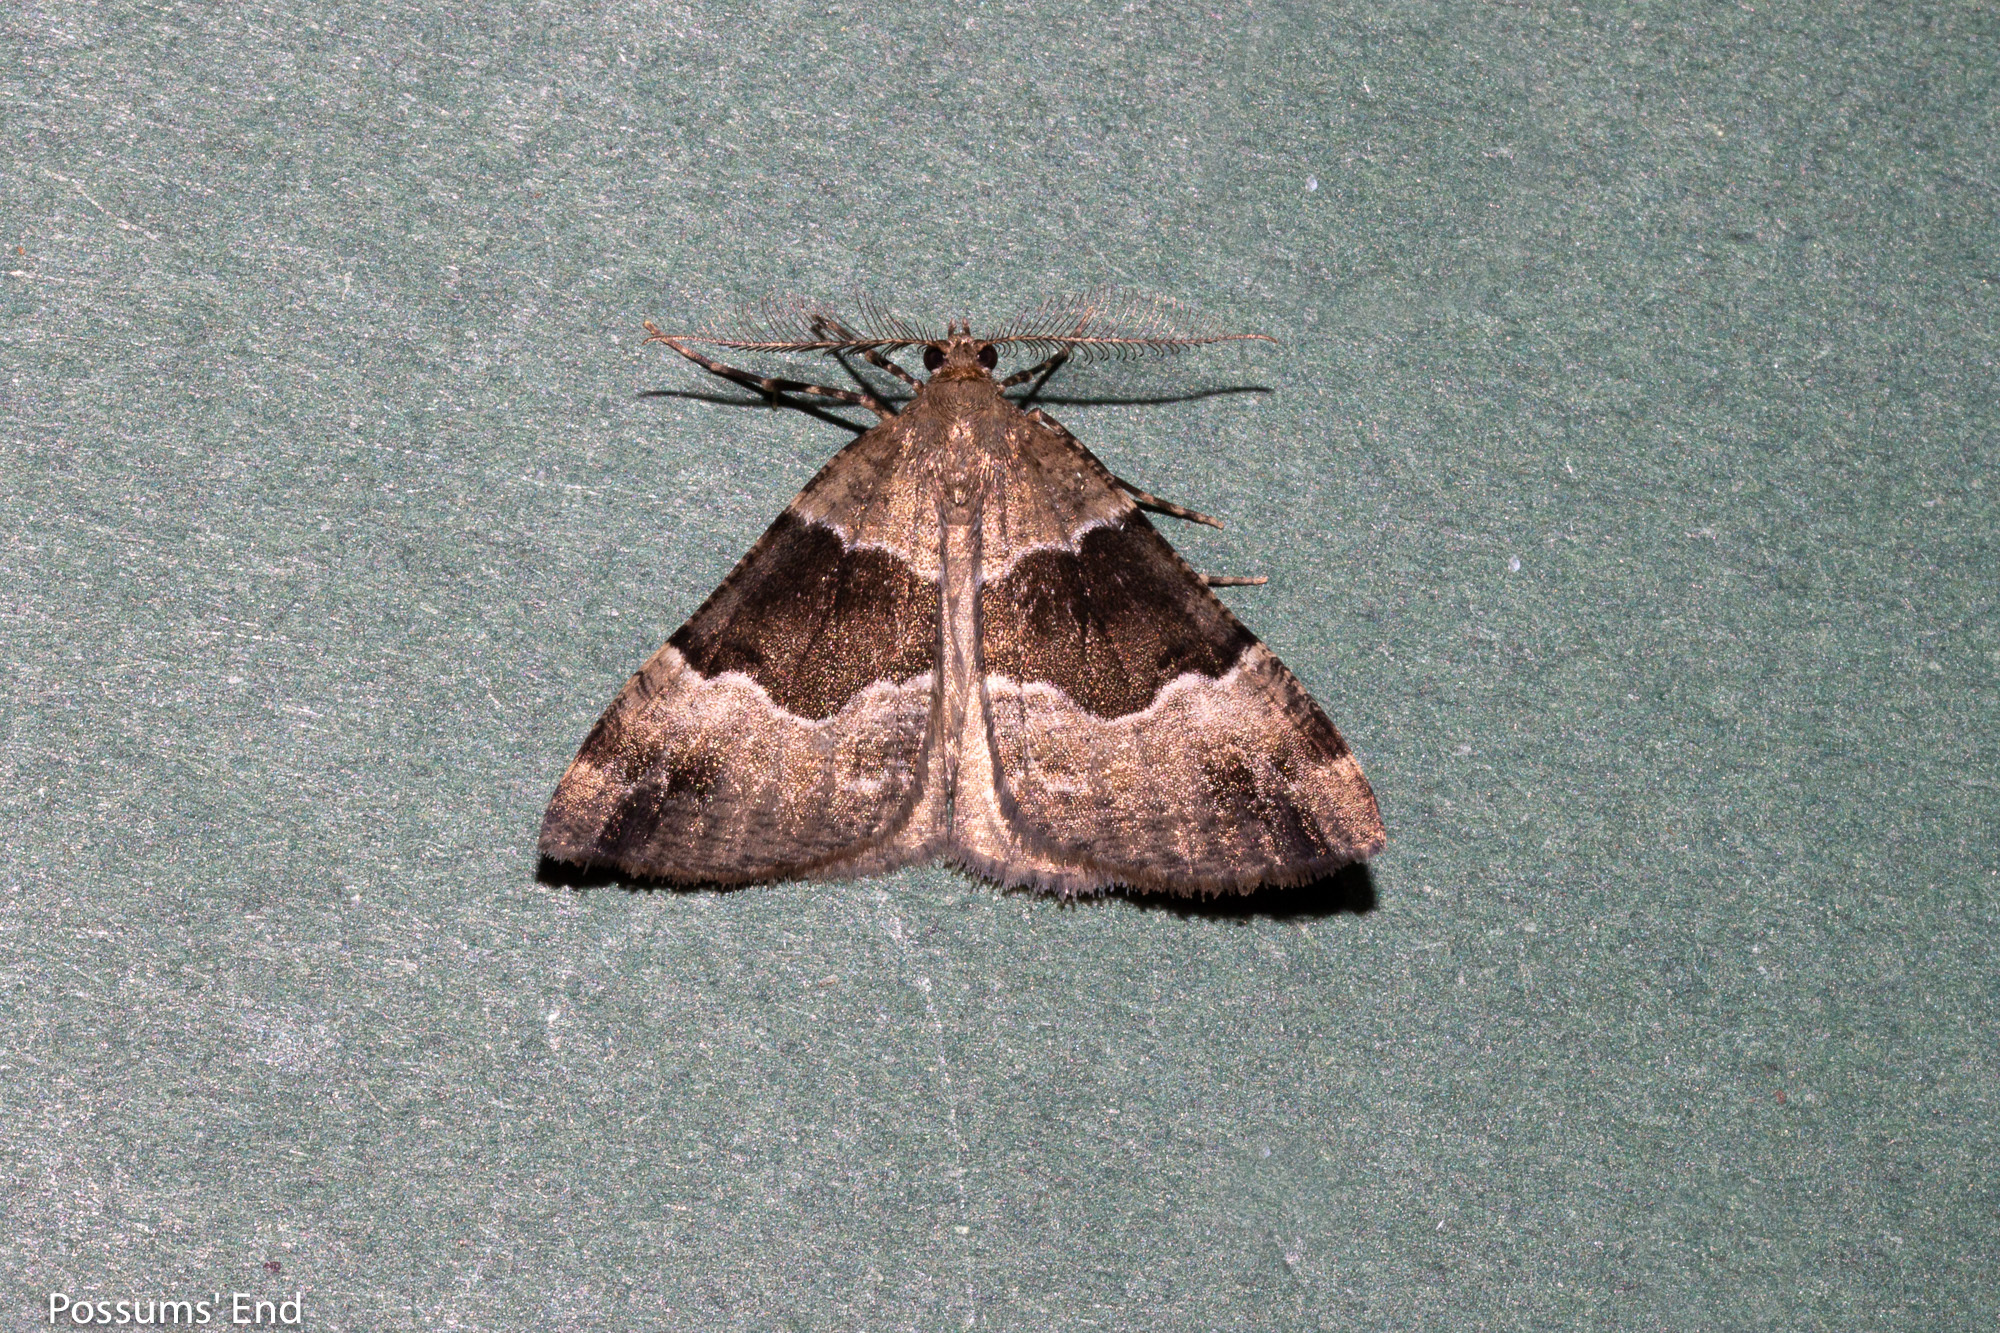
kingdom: Animalia
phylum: Arthropoda
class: Insecta
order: Lepidoptera
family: Geometridae
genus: Pseudocoremia
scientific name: Pseudocoremia
